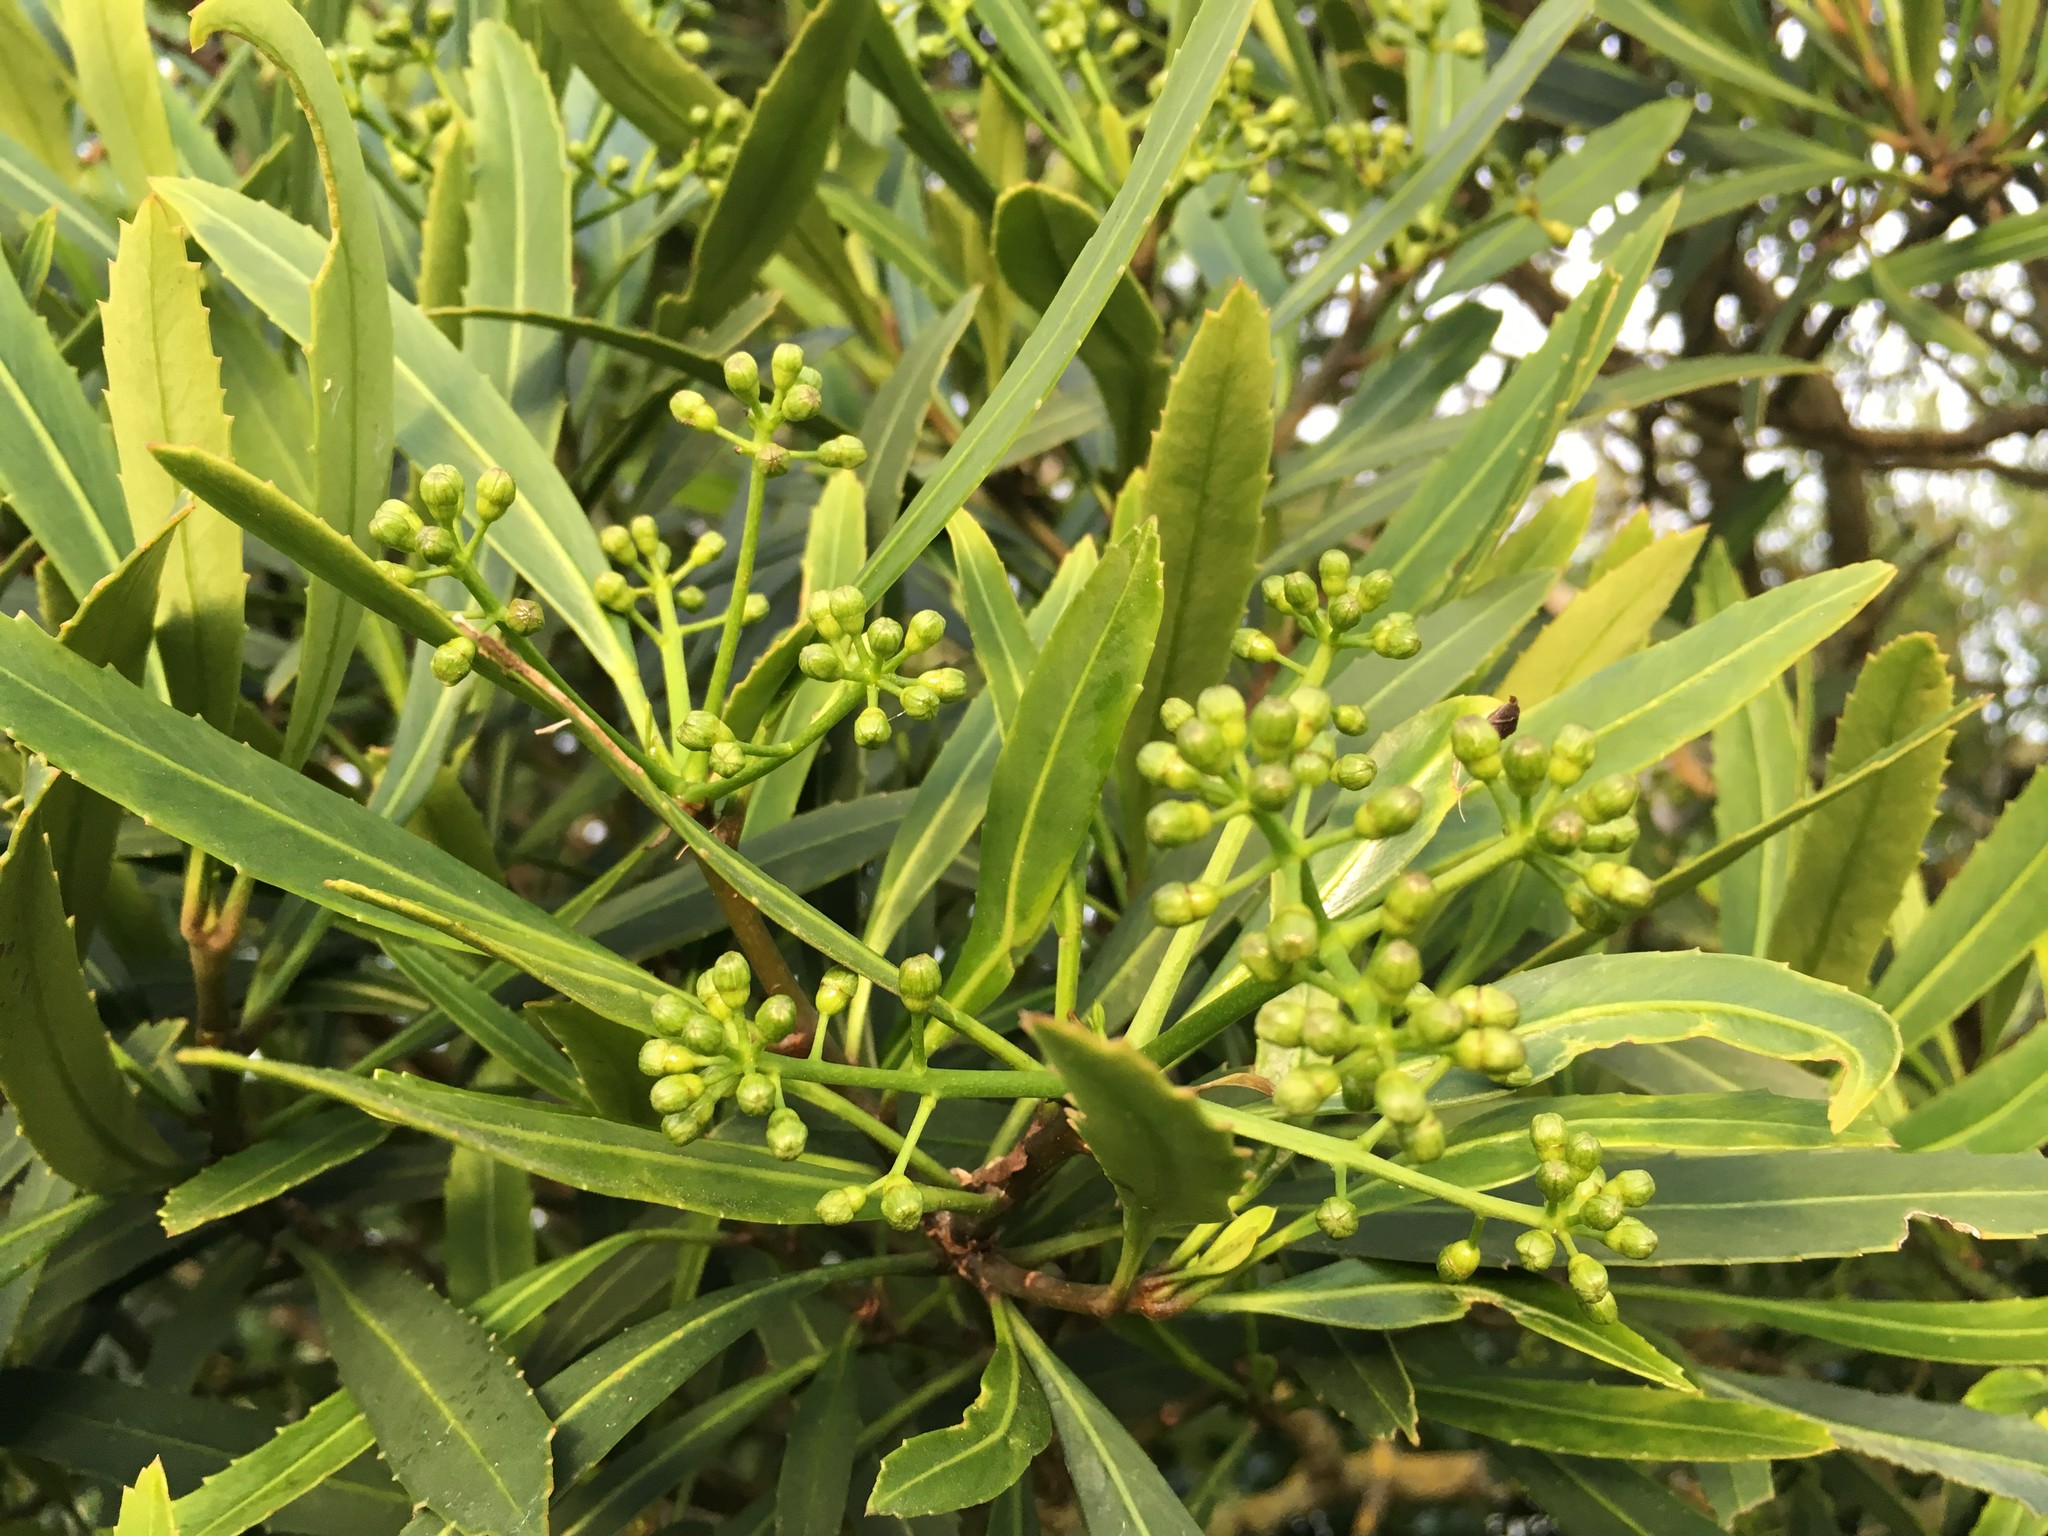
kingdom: Plantae
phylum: Tracheophyta
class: Magnoliopsida
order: Apiales
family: Araliaceae
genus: Pseudopanax
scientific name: Pseudopanax crassifolius
